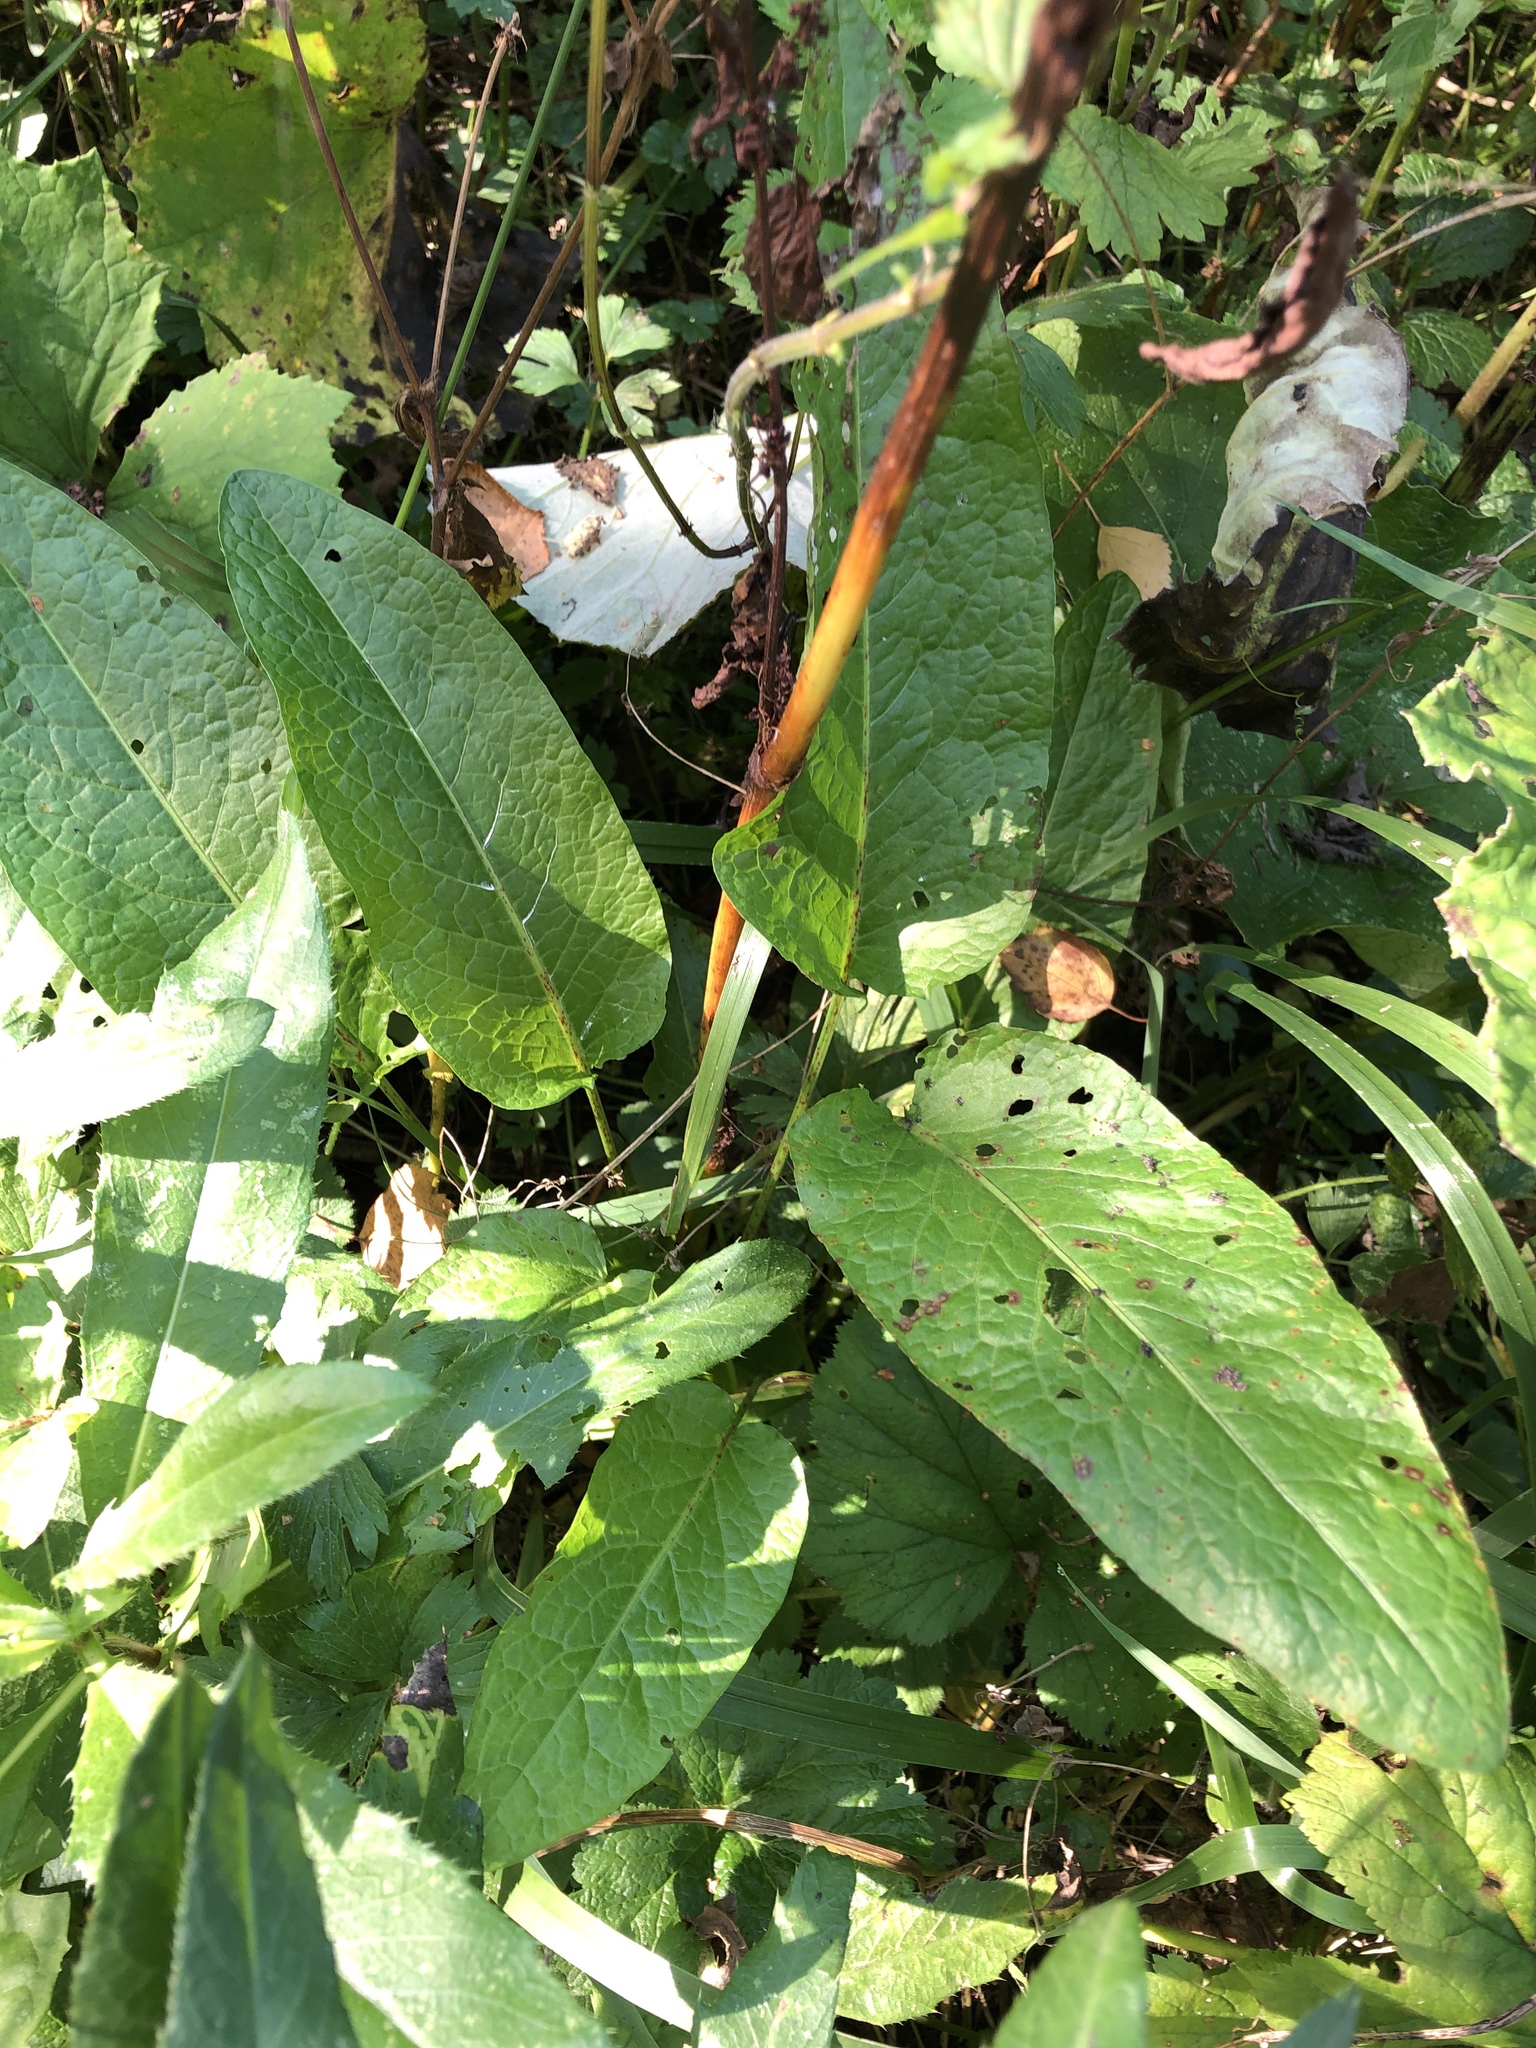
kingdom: Plantae
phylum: Tracheophyta
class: Magnoliopsida
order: Caryophyllales
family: Polygonaceae
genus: Rumex
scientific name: Rumex obtusifolius
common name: Bitter dock
